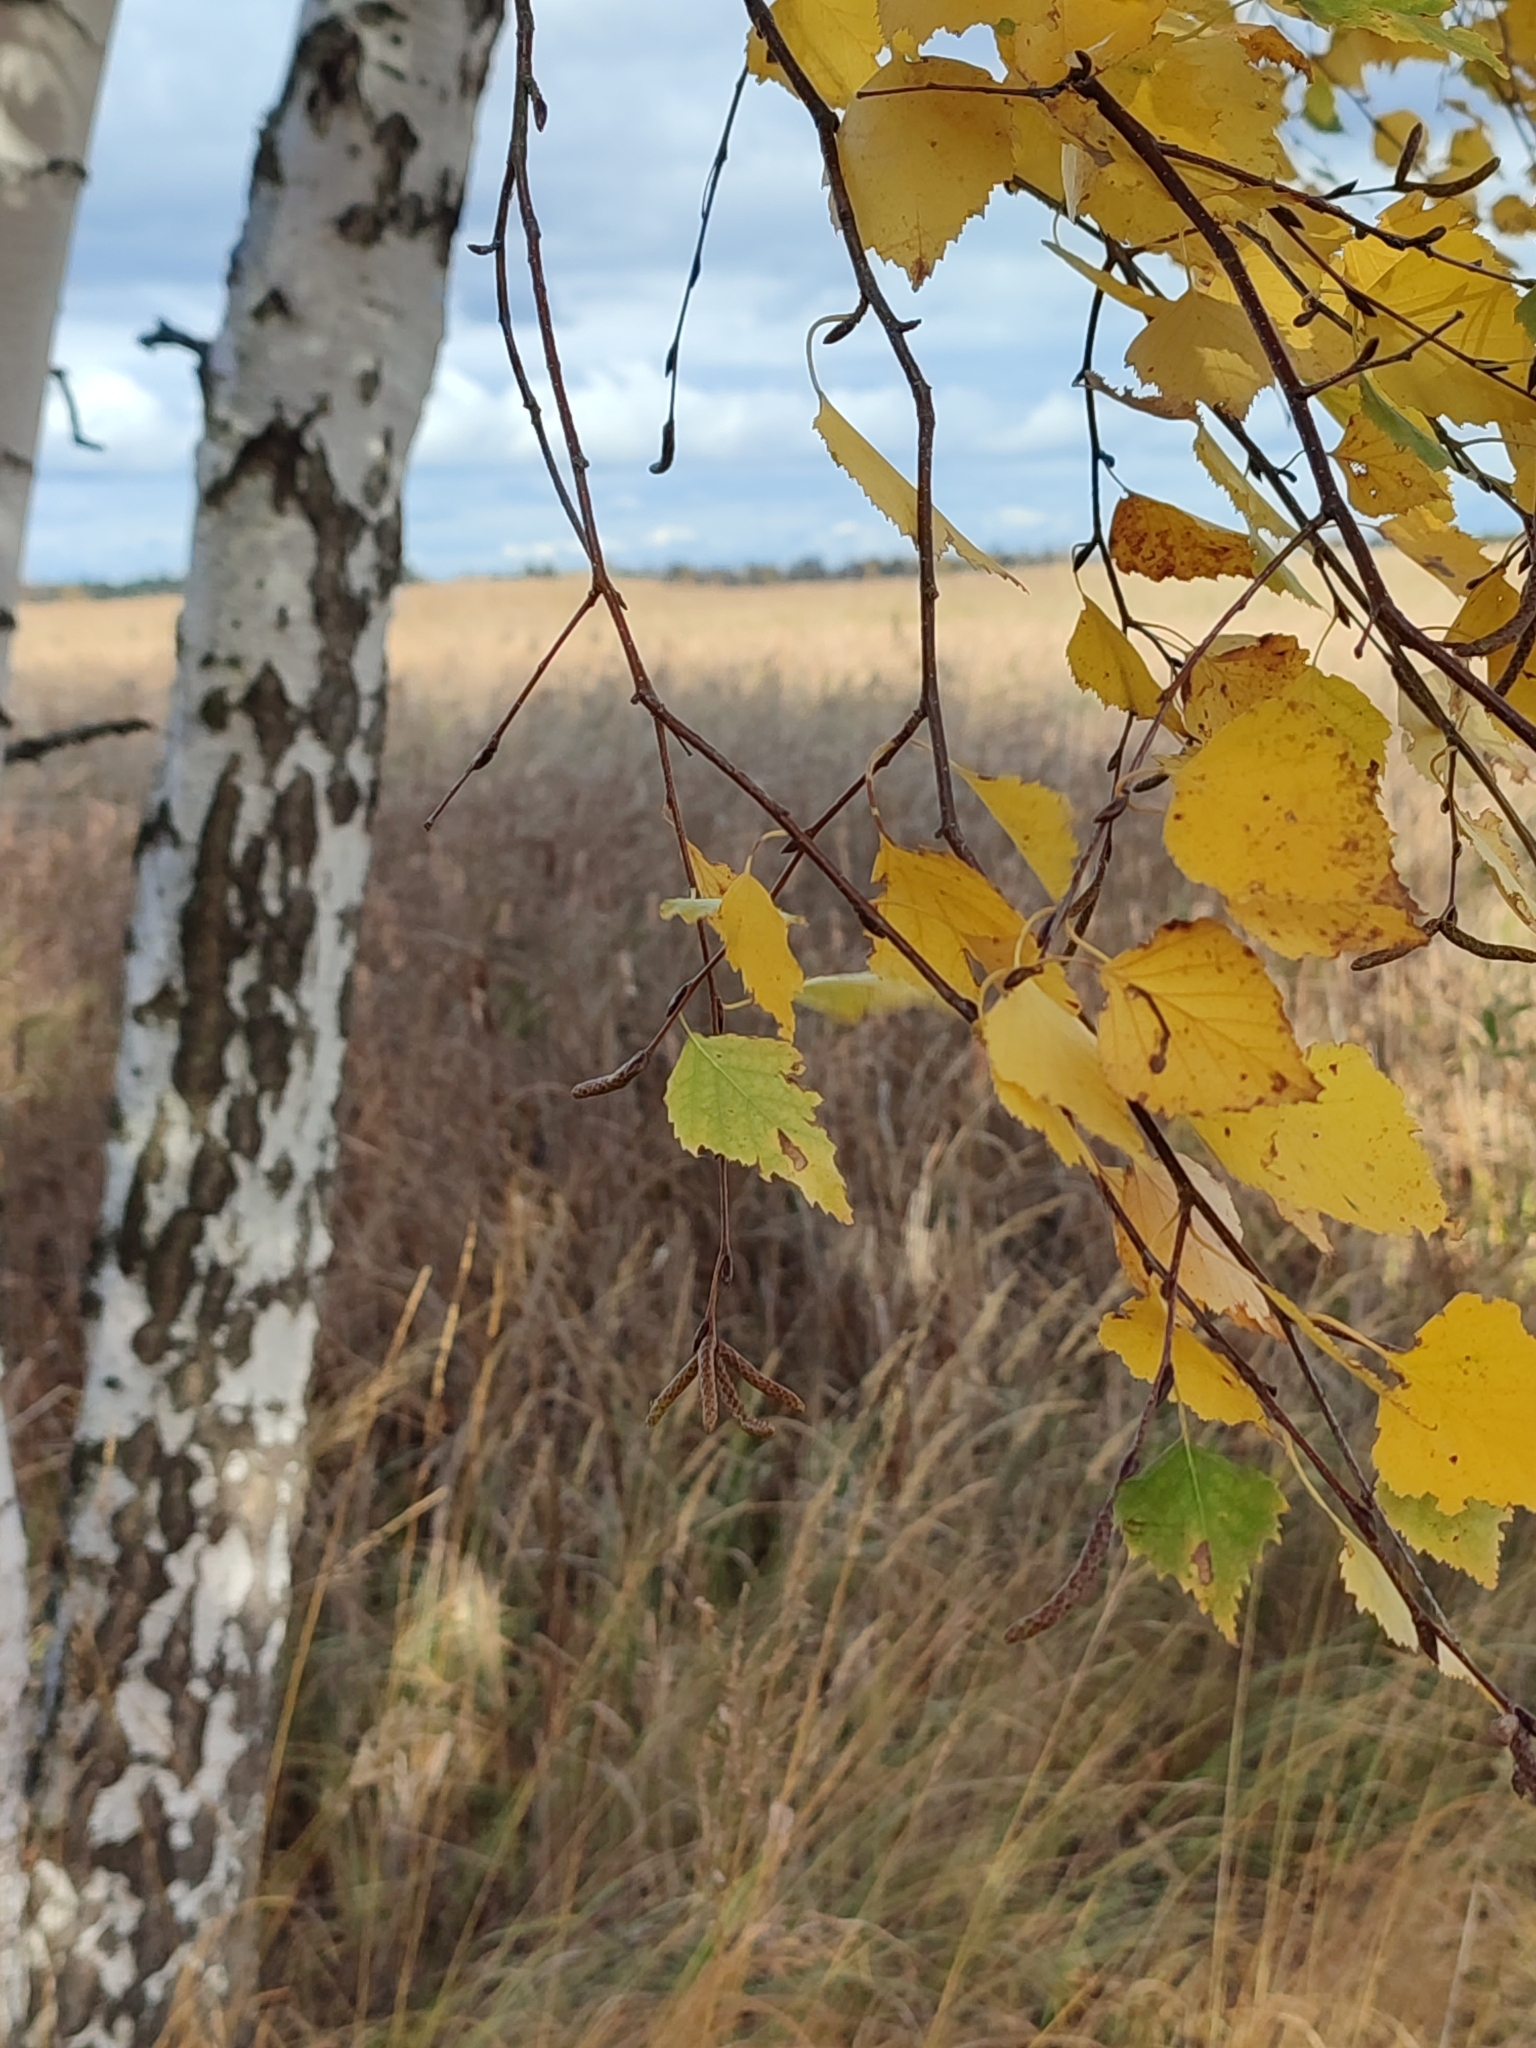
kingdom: Plantae
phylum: Tracheophyta
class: Magnoliopsida
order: Fagales
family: Betulaceae
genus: Betula
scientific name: Betula pendula
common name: Silver birch
